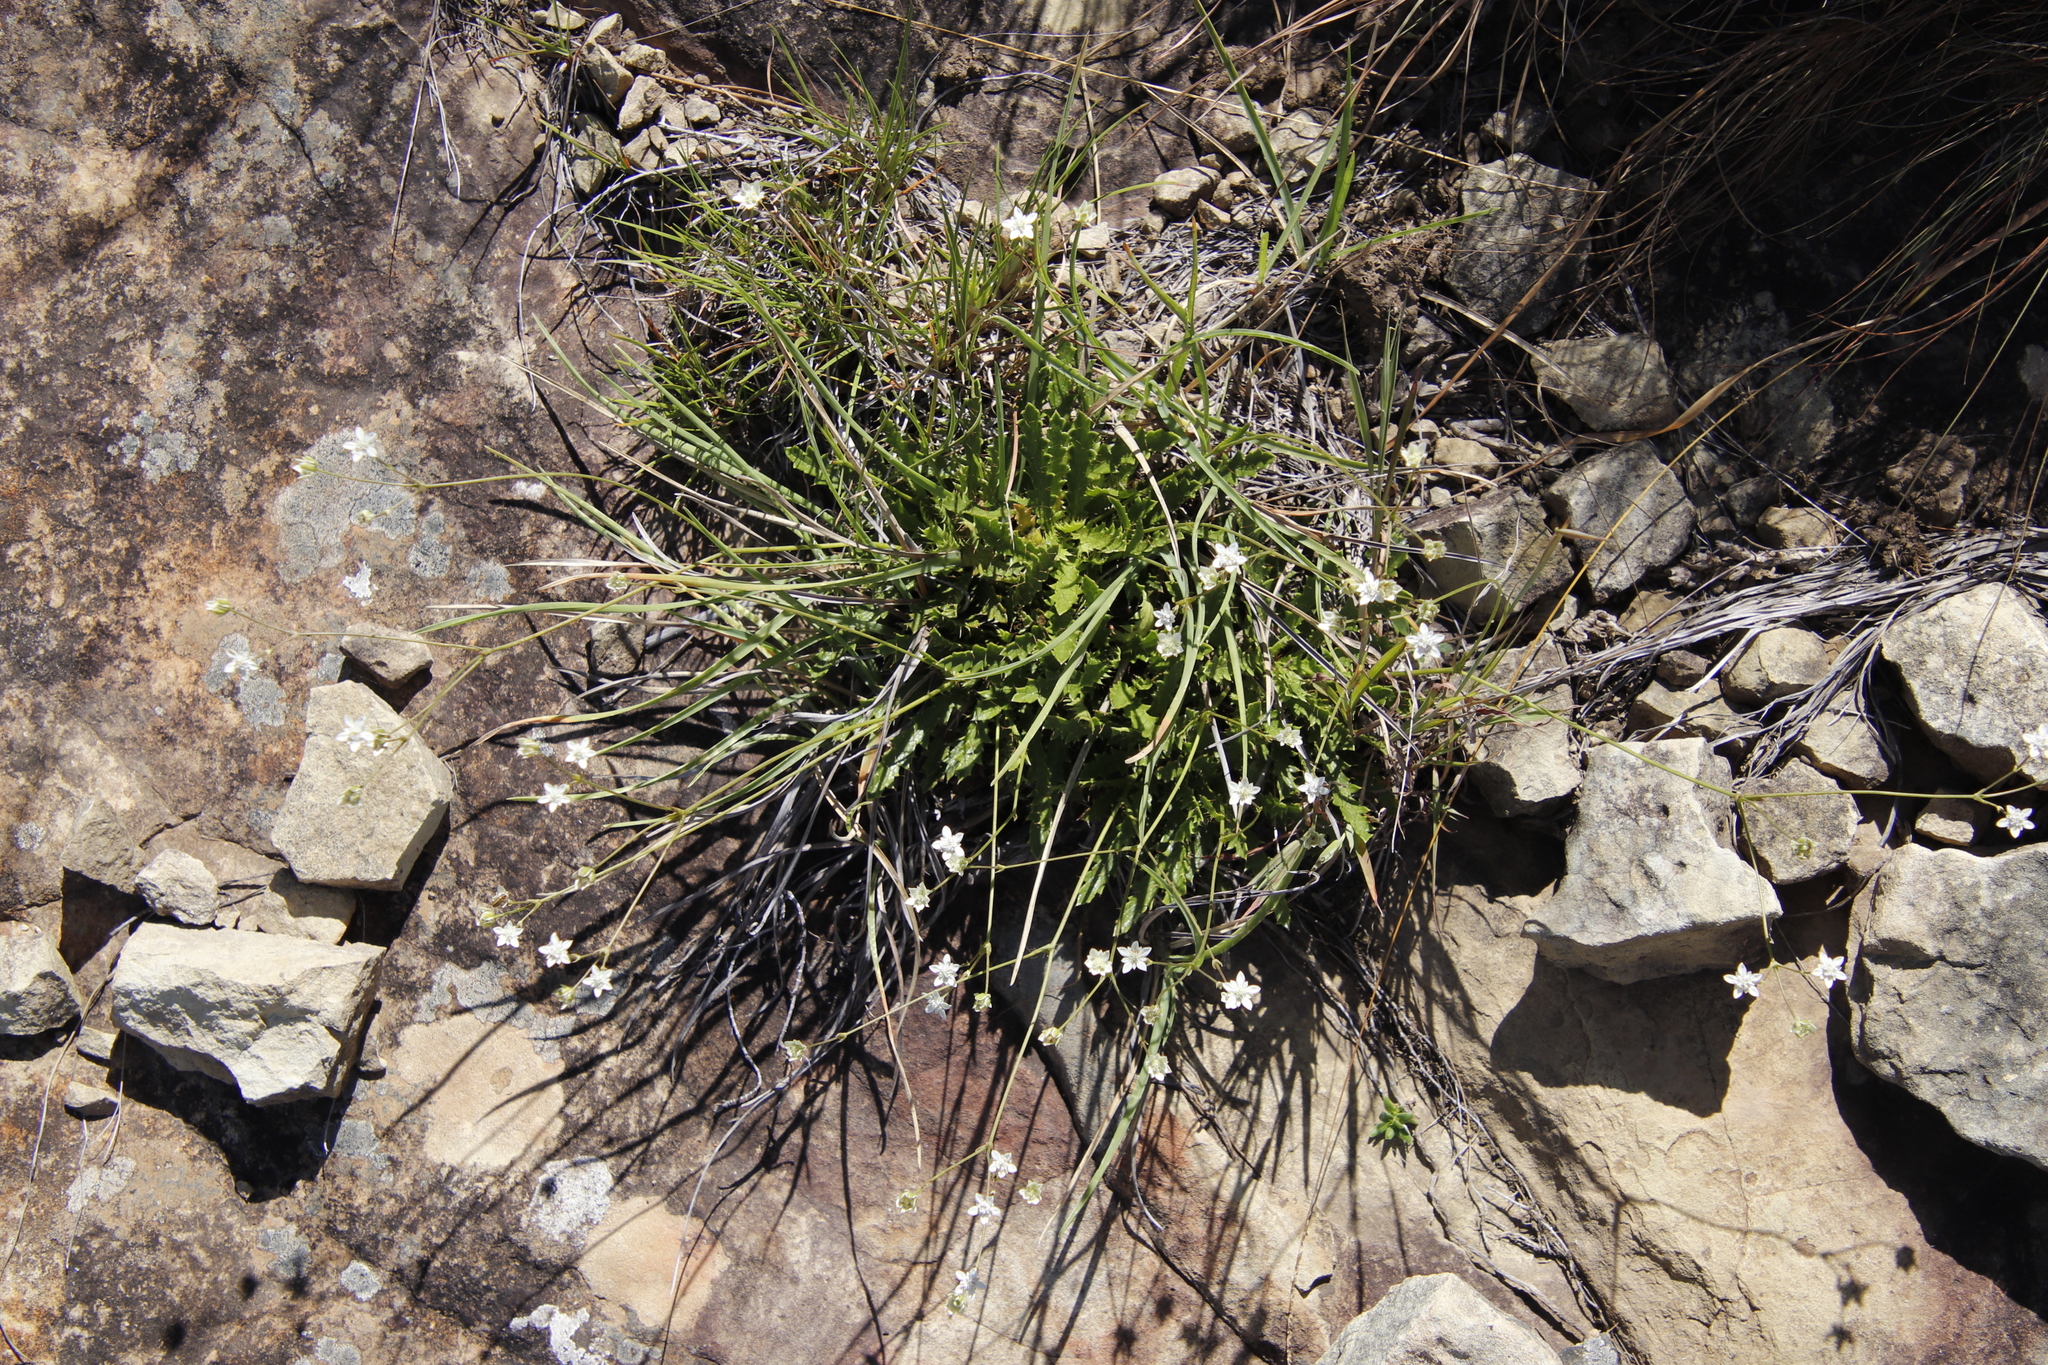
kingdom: Plantae
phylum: Tracheophyta
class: Magnoliopsida
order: Apiales
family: Apiaceae
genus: Alepidea
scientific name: Alepidea duplidens
